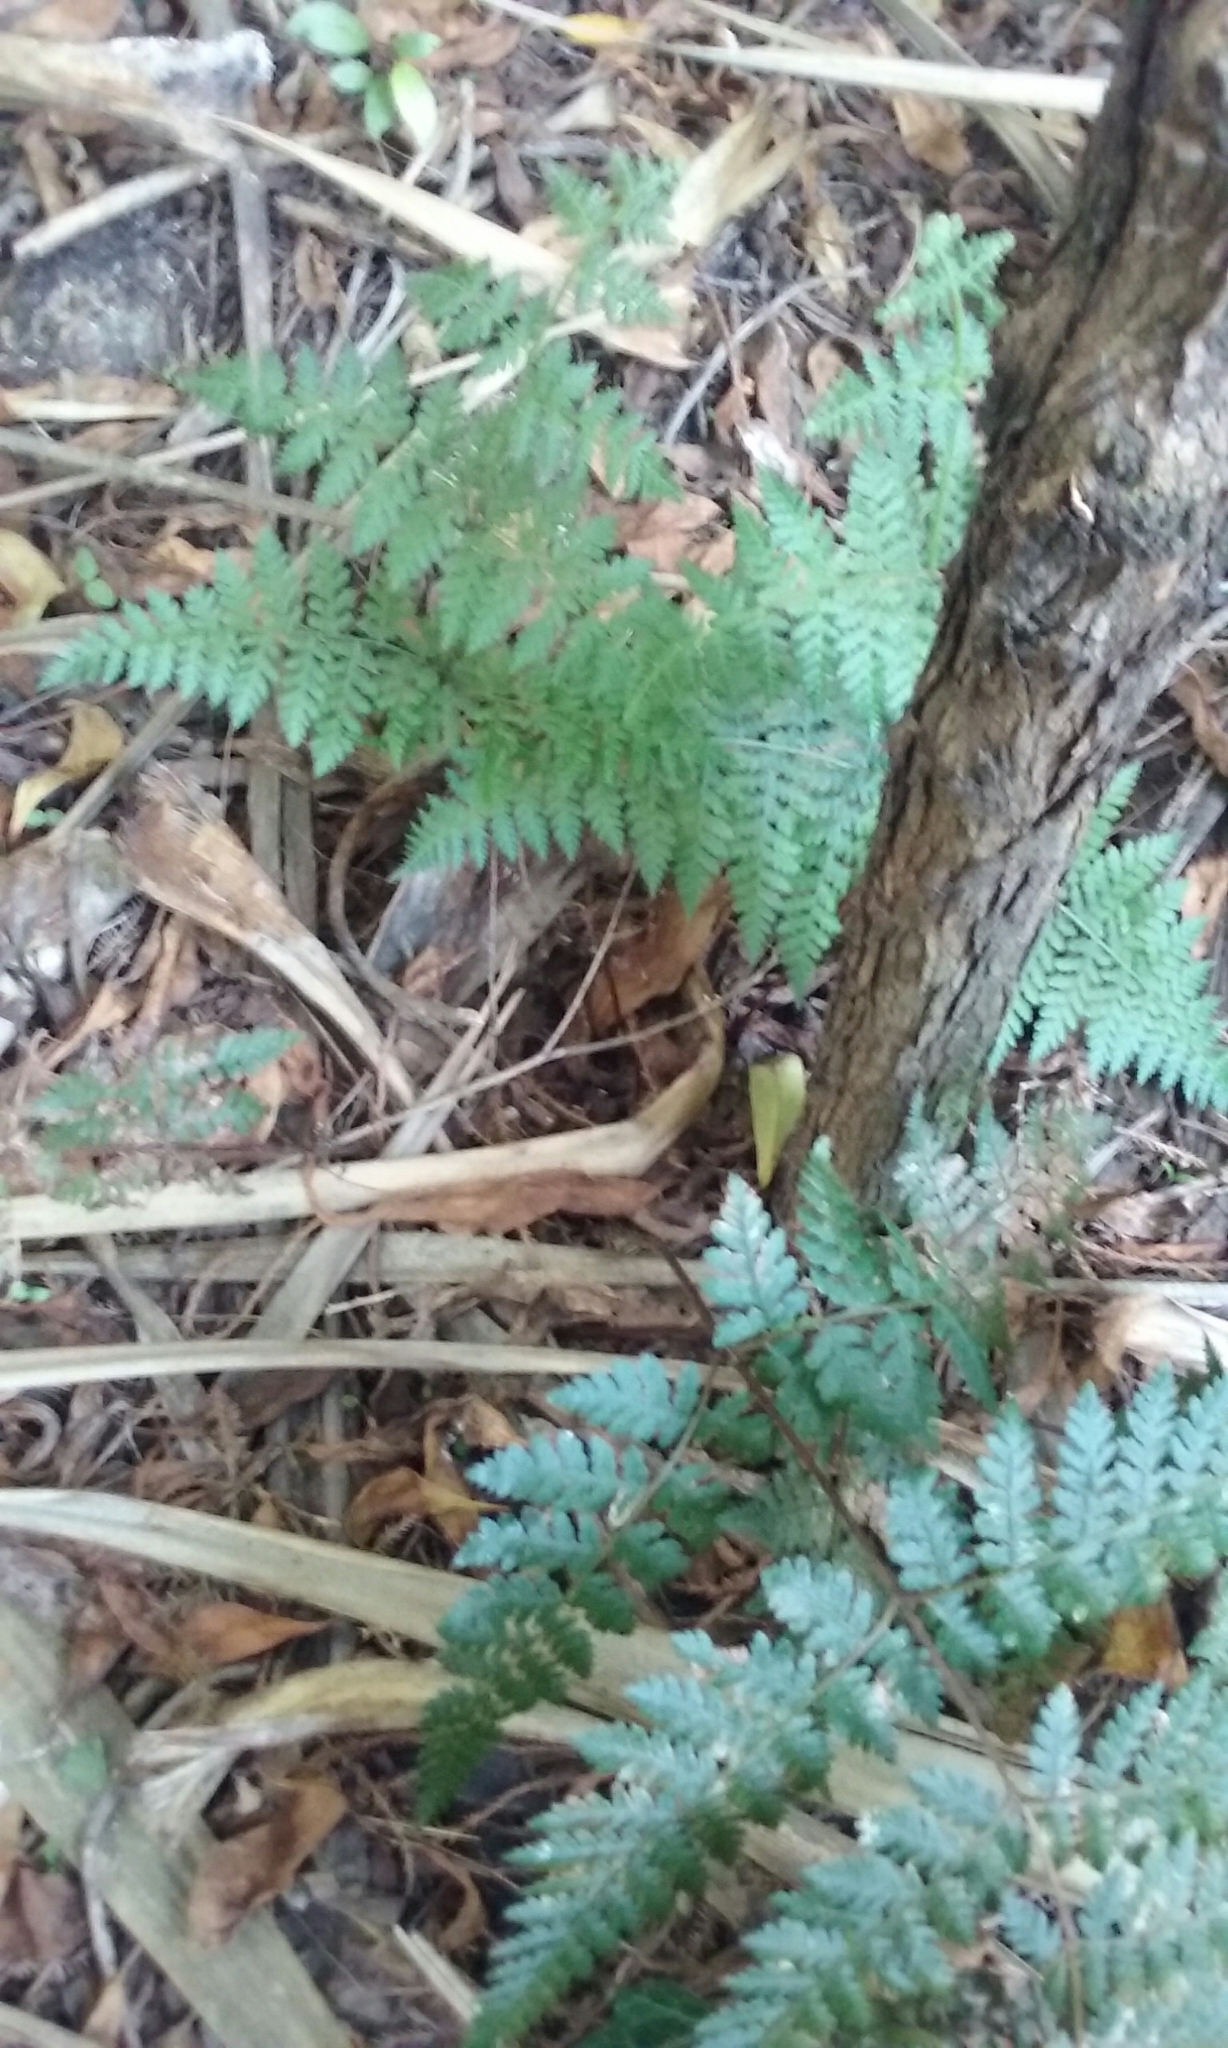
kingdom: Plantae
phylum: Tracheophyta
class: Polypodiopsida
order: Polypodiales
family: Dennstaedtiaceae
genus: Hypolepis
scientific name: Hypolepis ambigua
